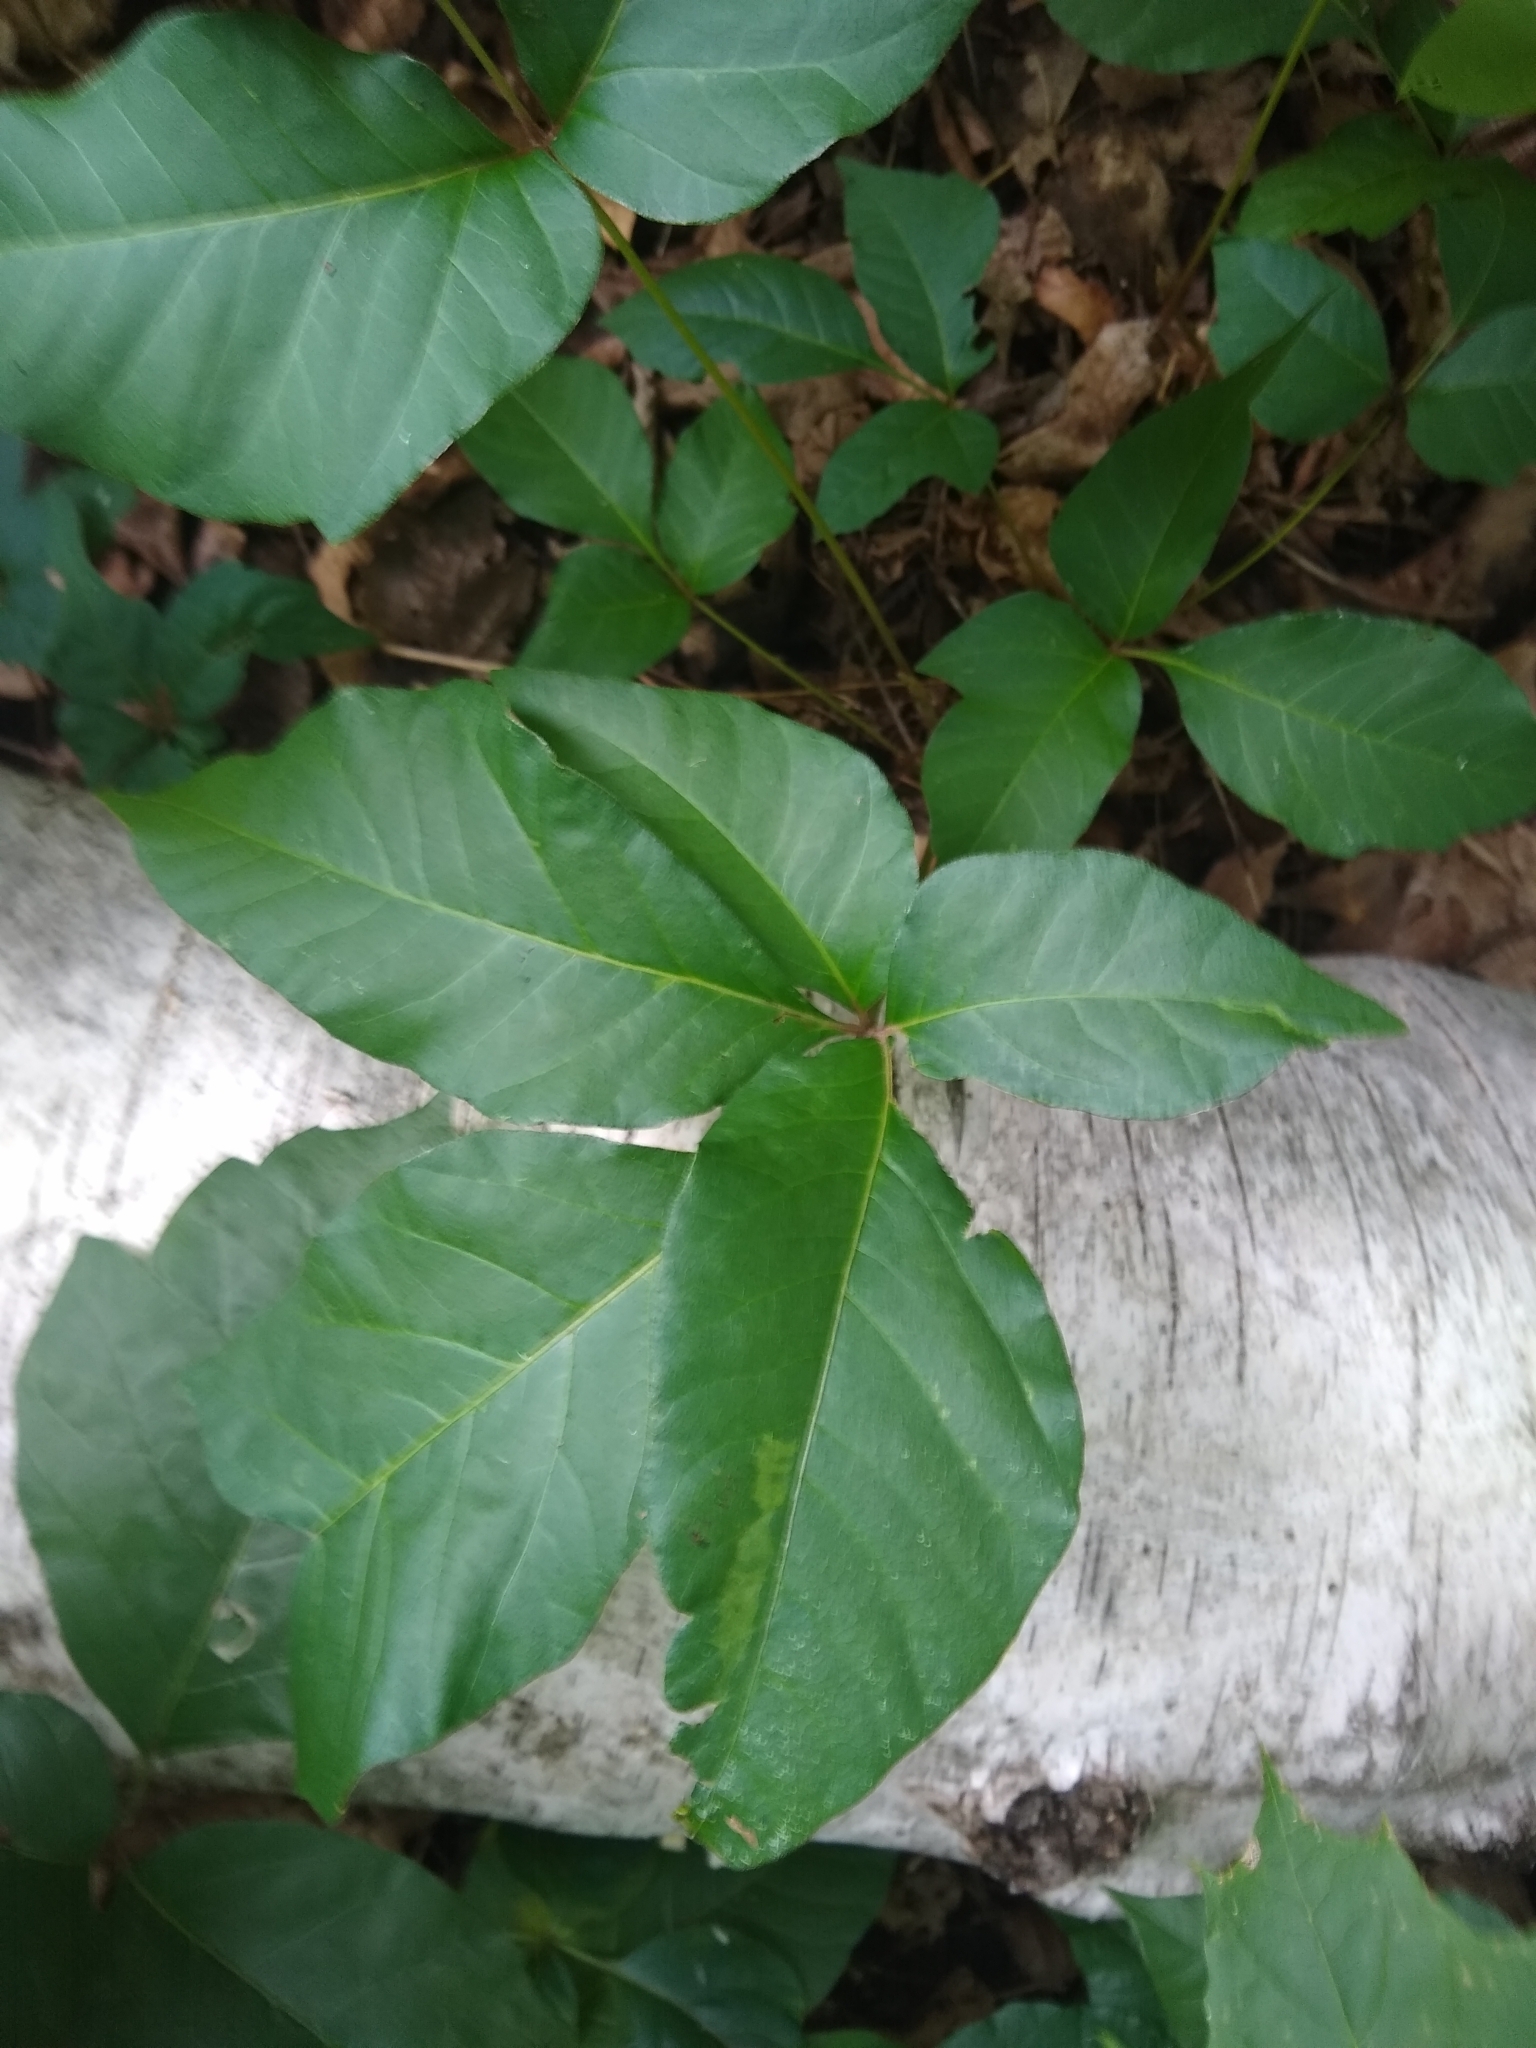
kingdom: Plantae
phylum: Tracheophyta
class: Magnoliopsida
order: Sapindales
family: Anacardiaceae
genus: Toxicodendron
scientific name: Toxicodendron
